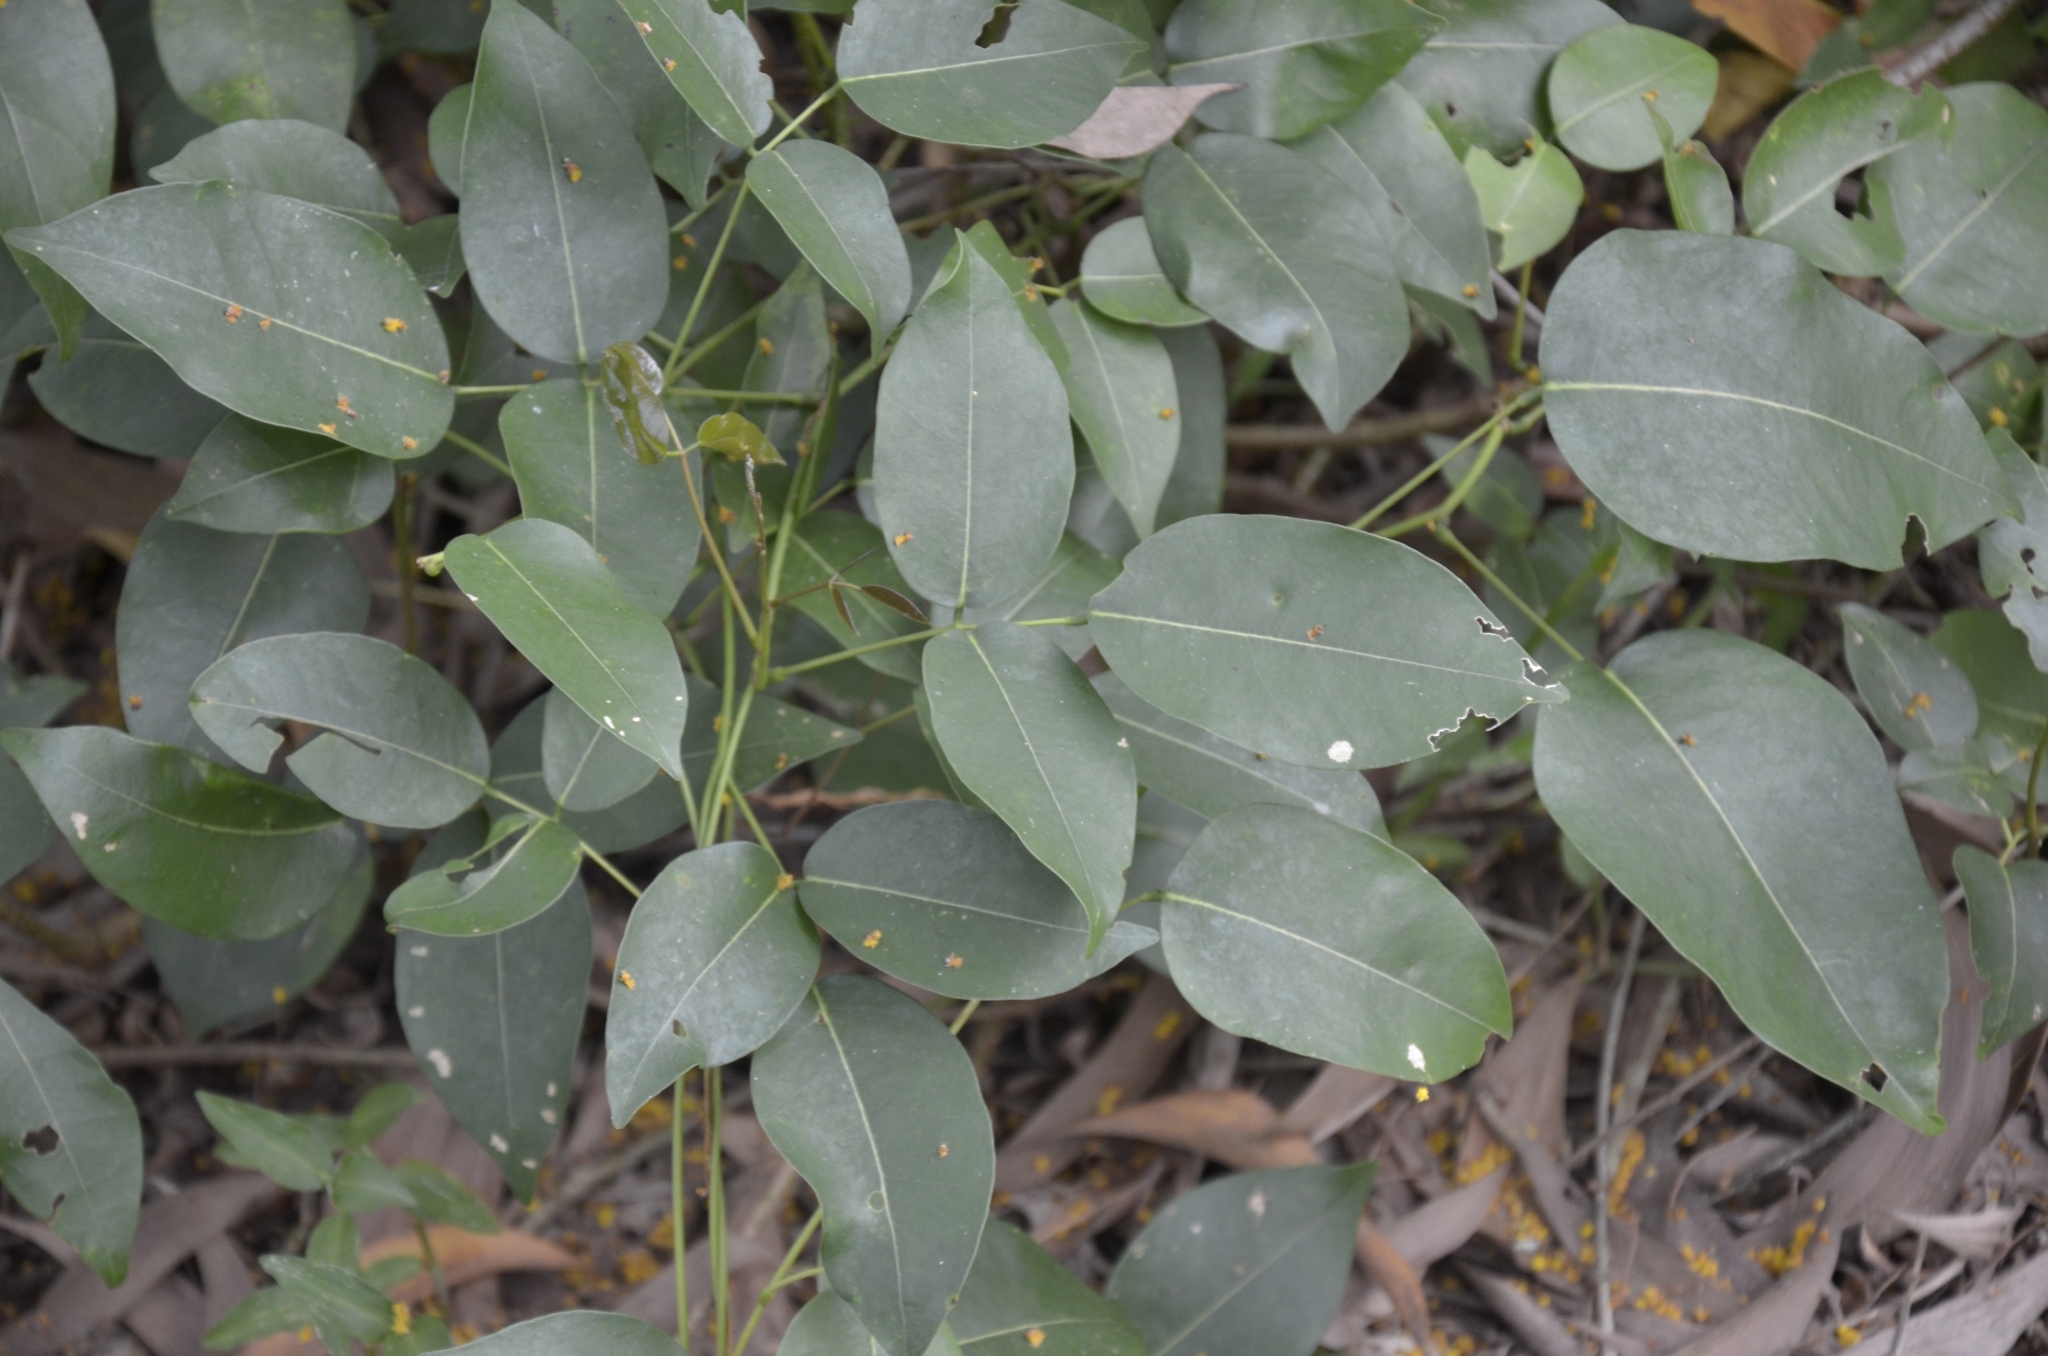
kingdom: Plantae
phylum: Tracheophyta
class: Magnoliopsida
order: Fabales
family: Fabaceae
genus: Derris
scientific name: Derris trifoliata
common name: Three-leaf derris
